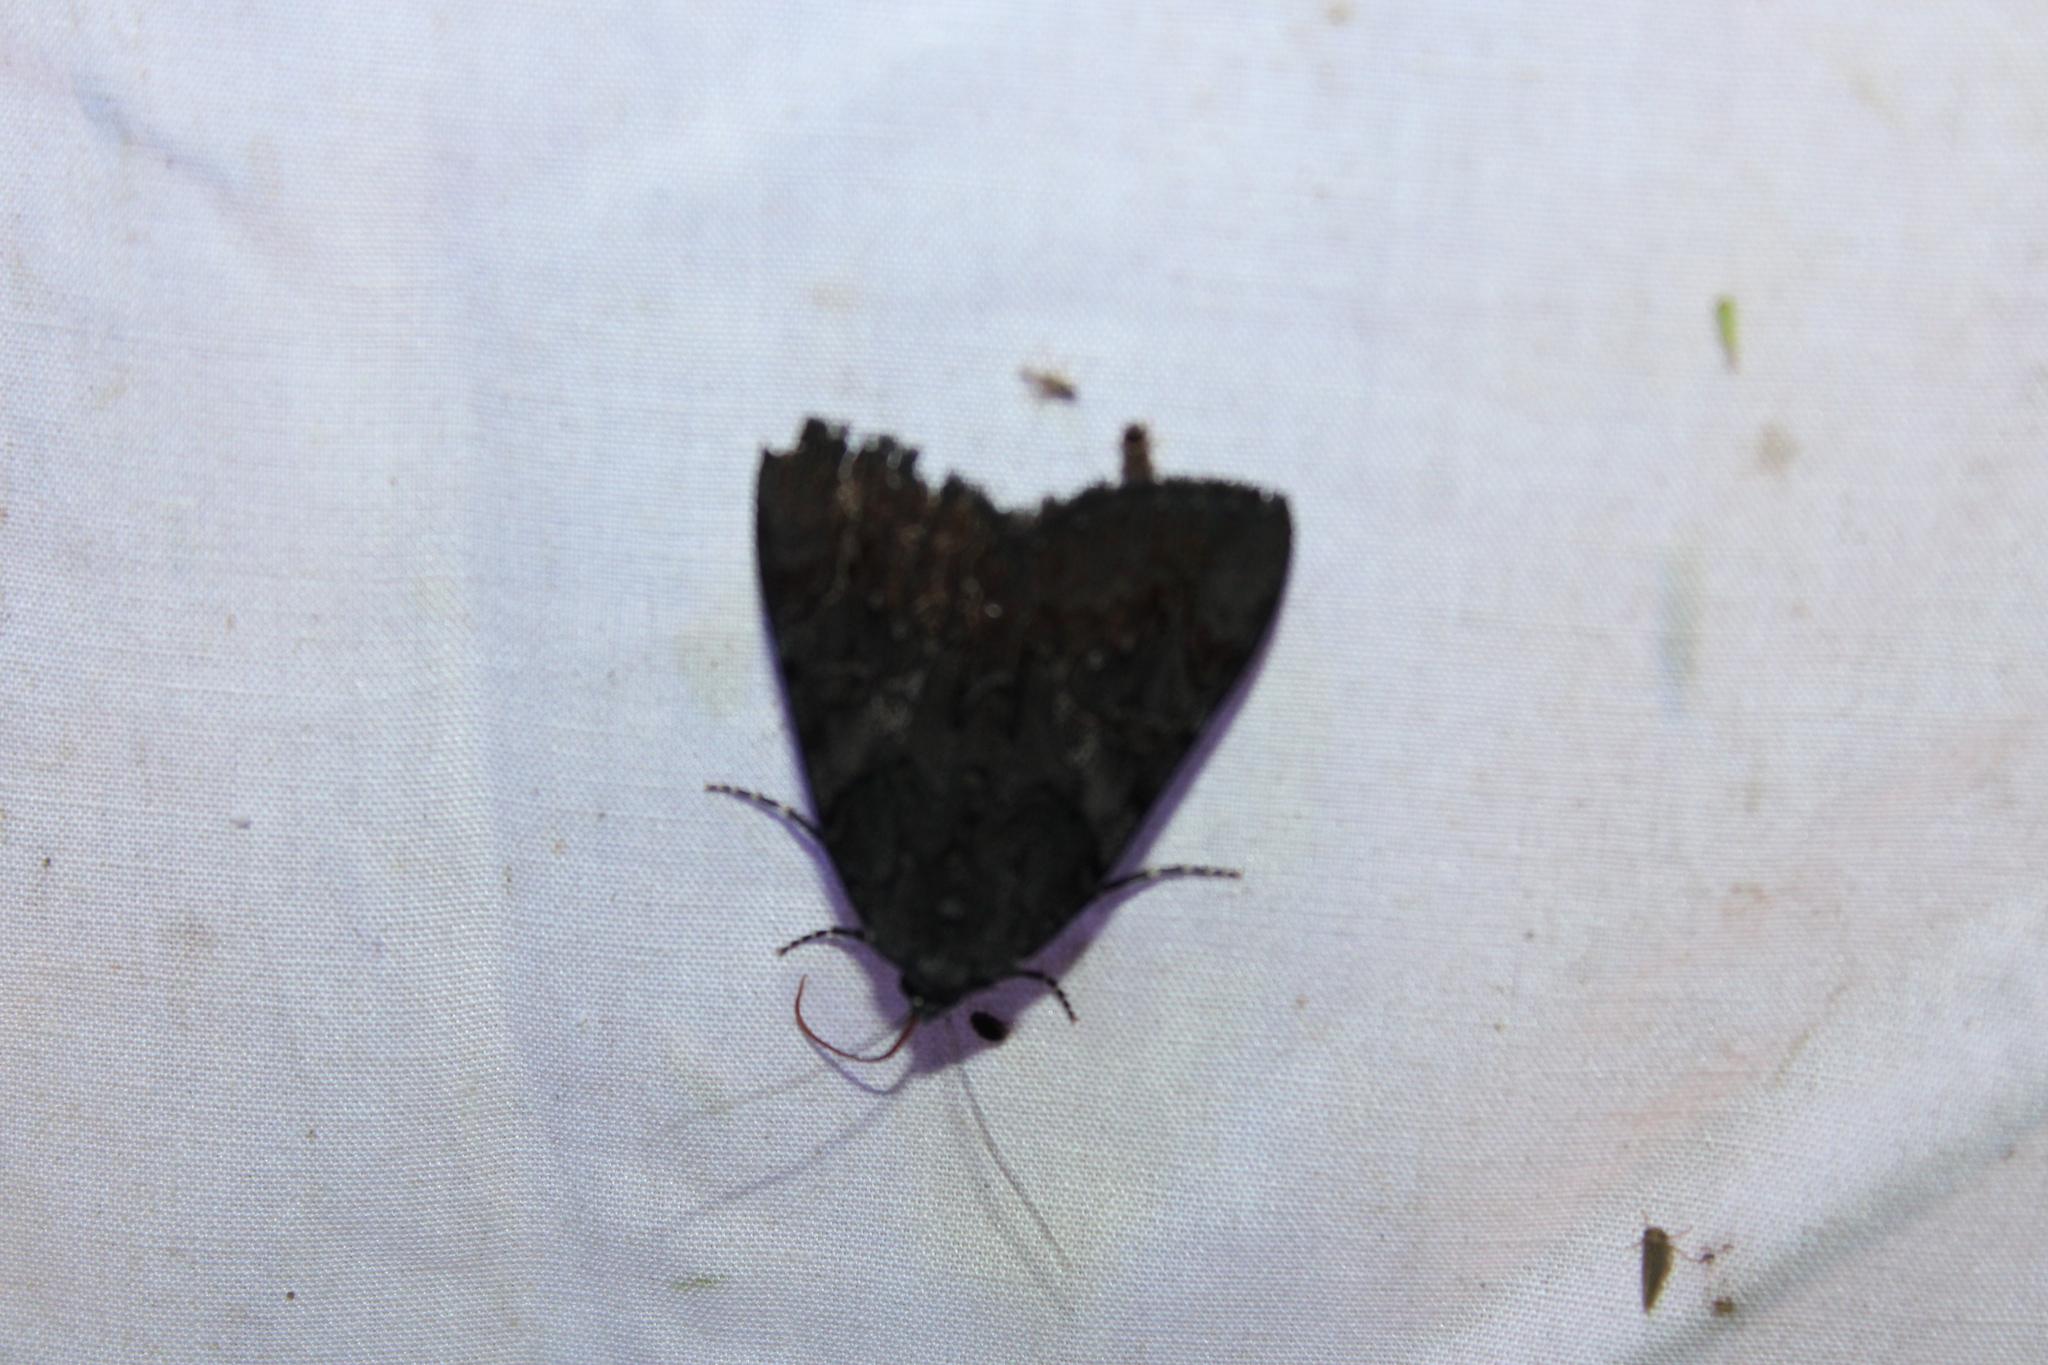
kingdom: Animalia
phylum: Arthropoda
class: Insecta
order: Lepidoptera
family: Erebidae
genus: Catocala
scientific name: Catocala antinympha
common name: Sweetfern underwing
